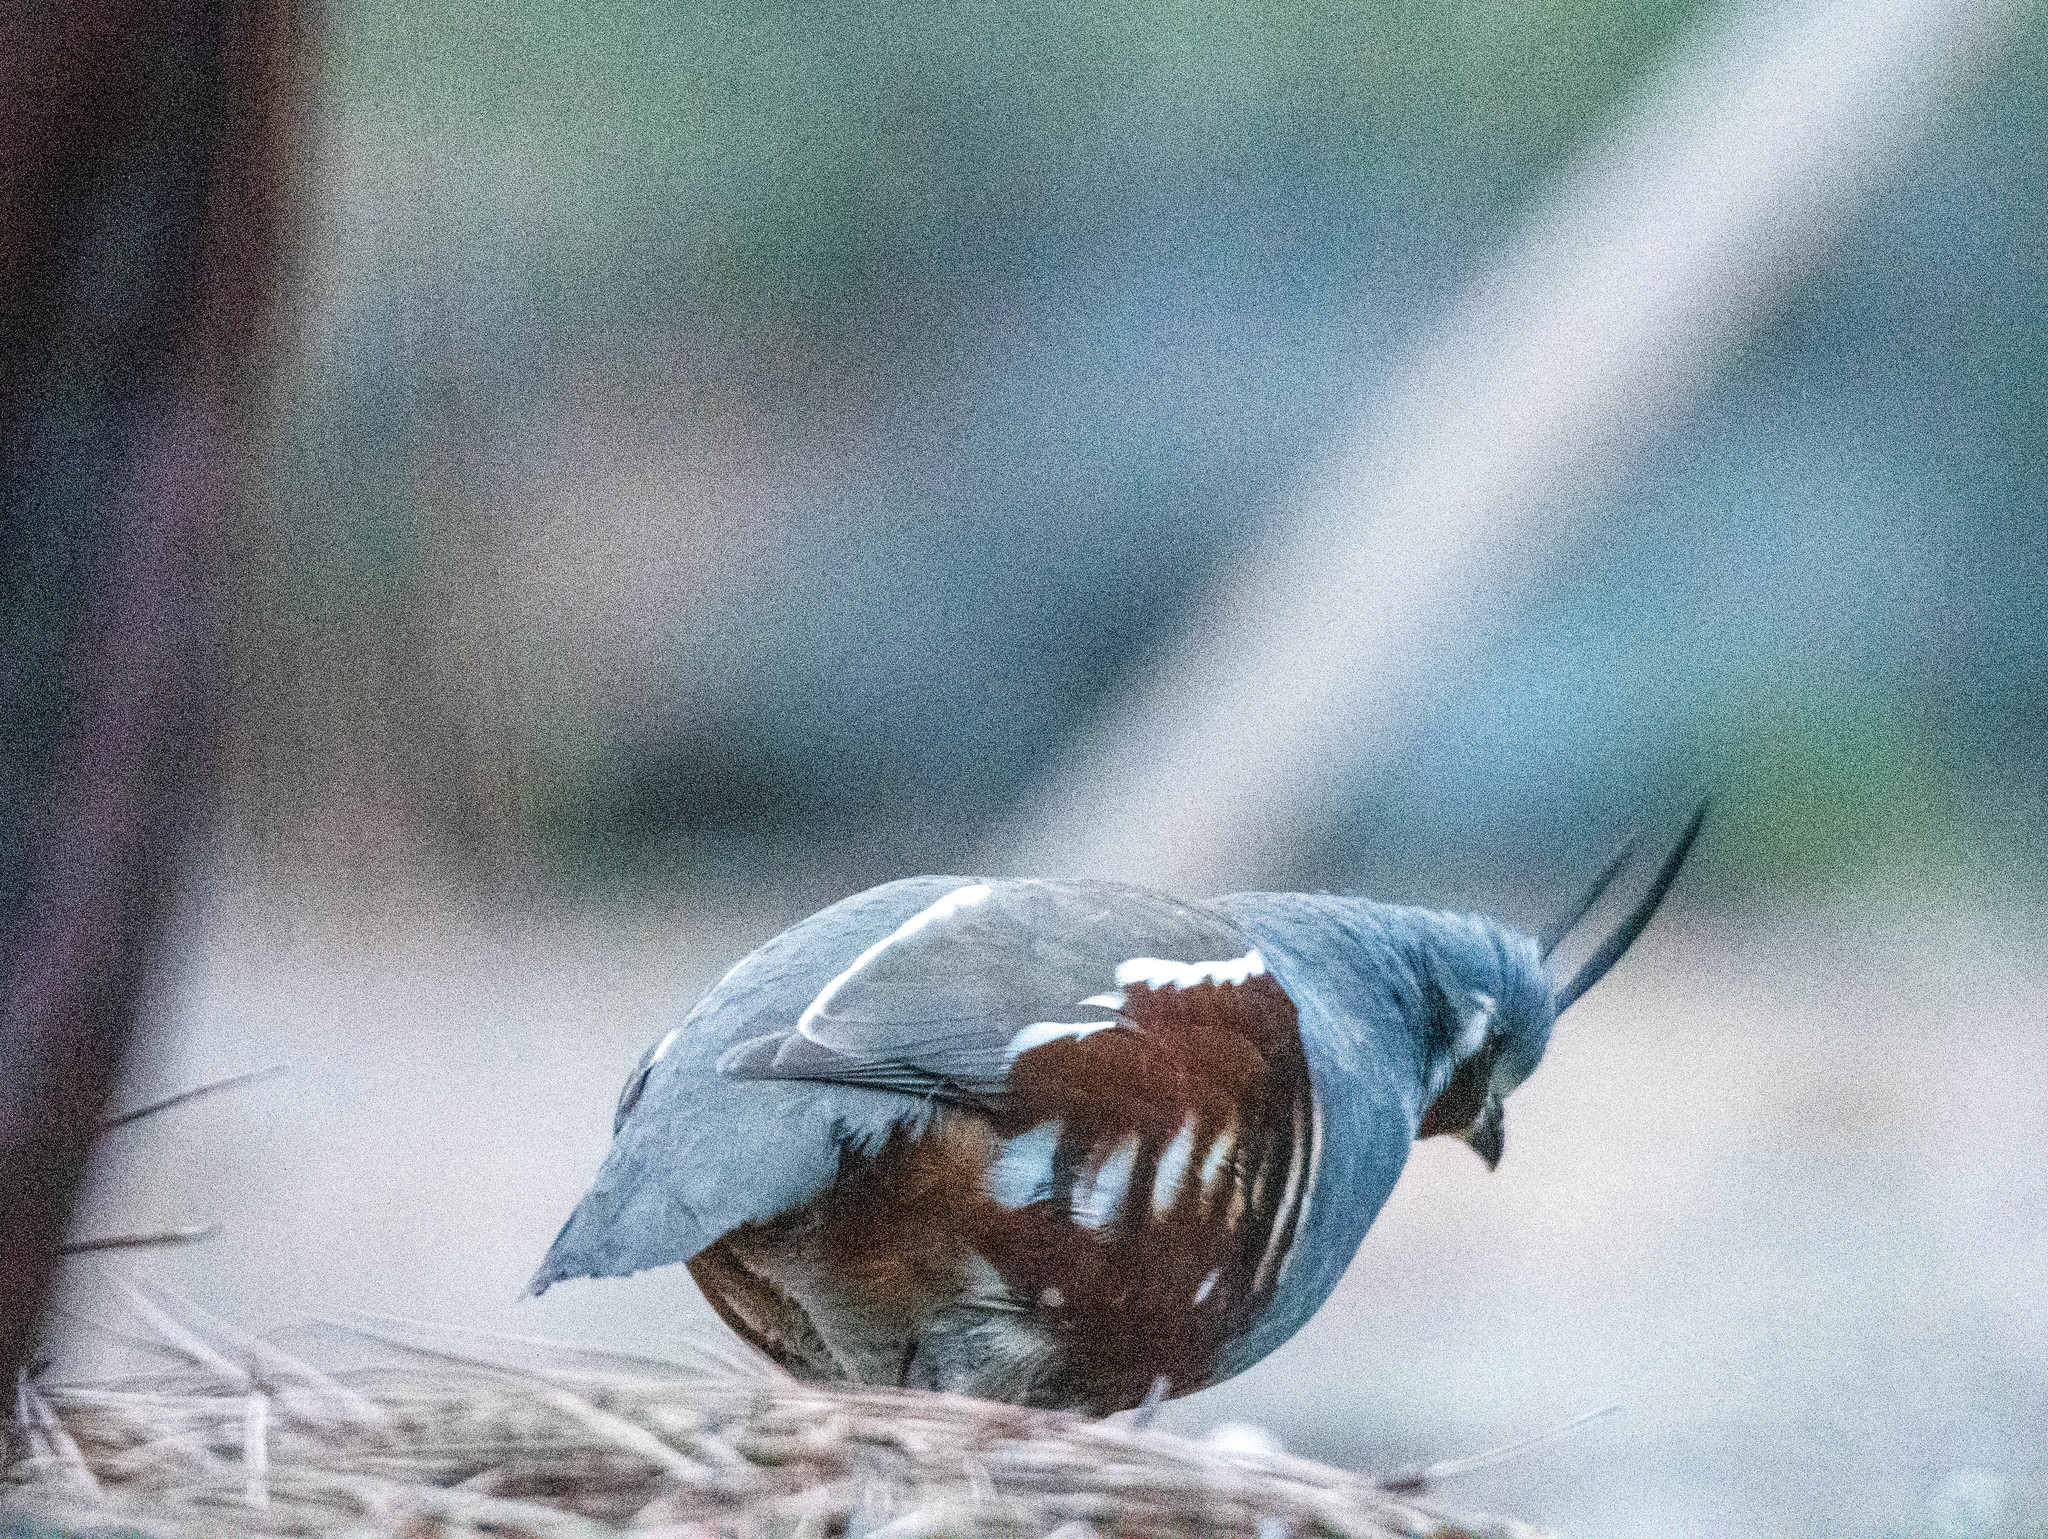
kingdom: Animalia
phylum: Chordata
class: Aves
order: Galliformes
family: Odontophoridae
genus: Oreortyx
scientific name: Oreortyx pictus
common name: Mountain quail
